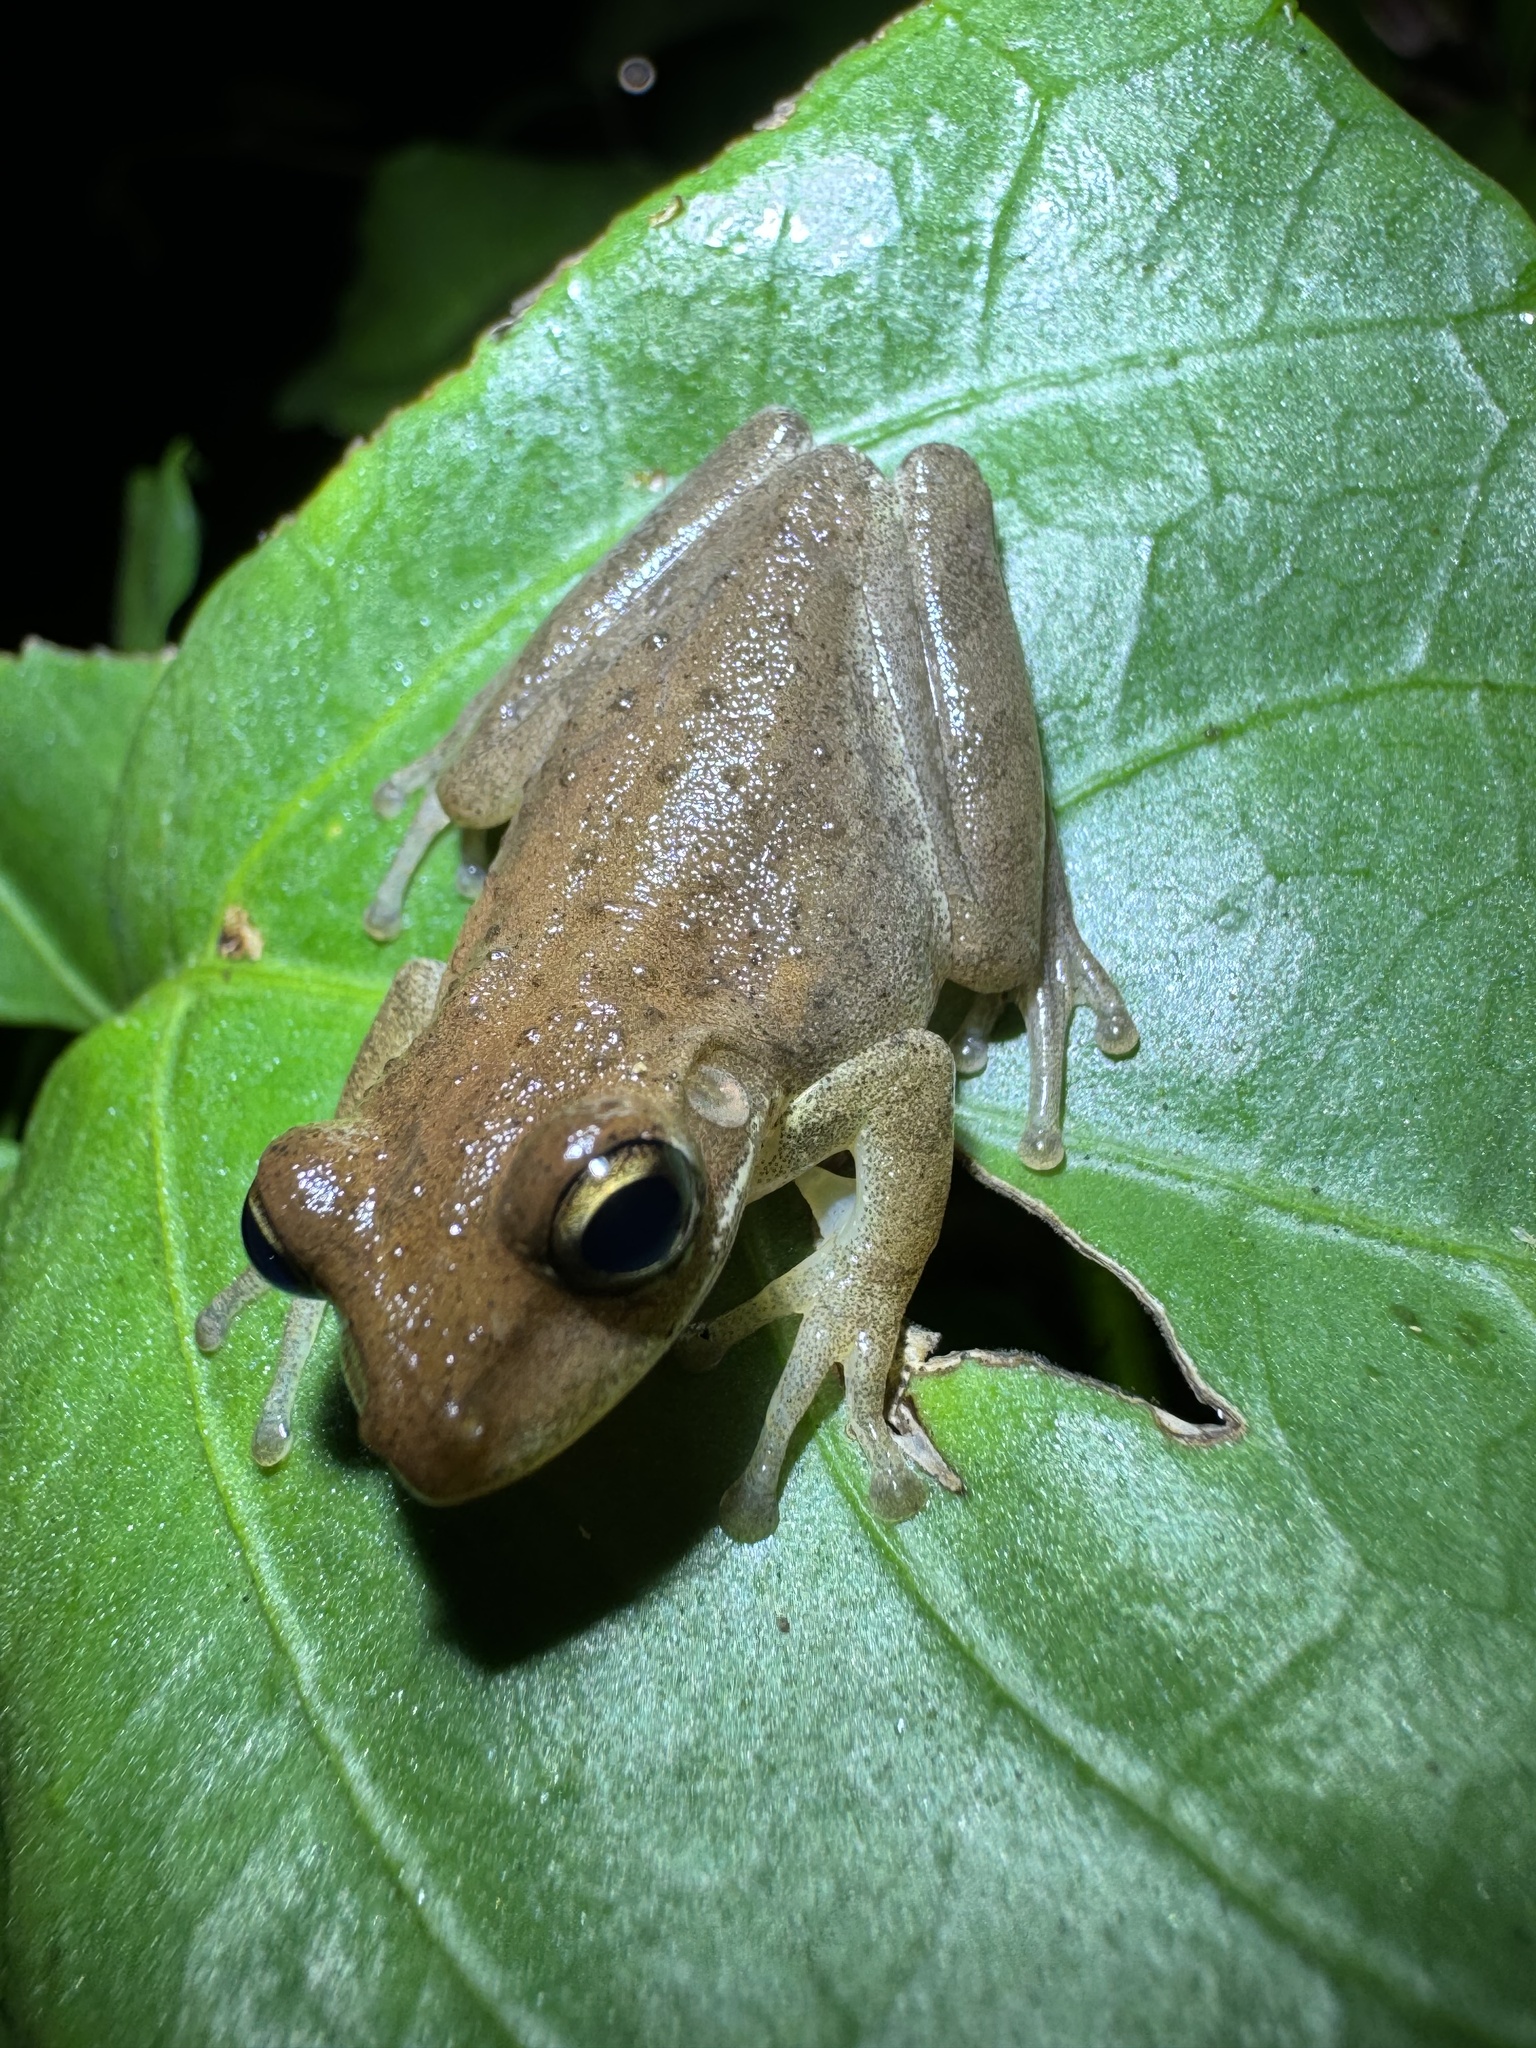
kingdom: Animalia
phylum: Chordata
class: Amphibia
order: Anura
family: Hylidae
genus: Osteopilus
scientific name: Osteopilus septentrionalis
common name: Cuban treefrog
